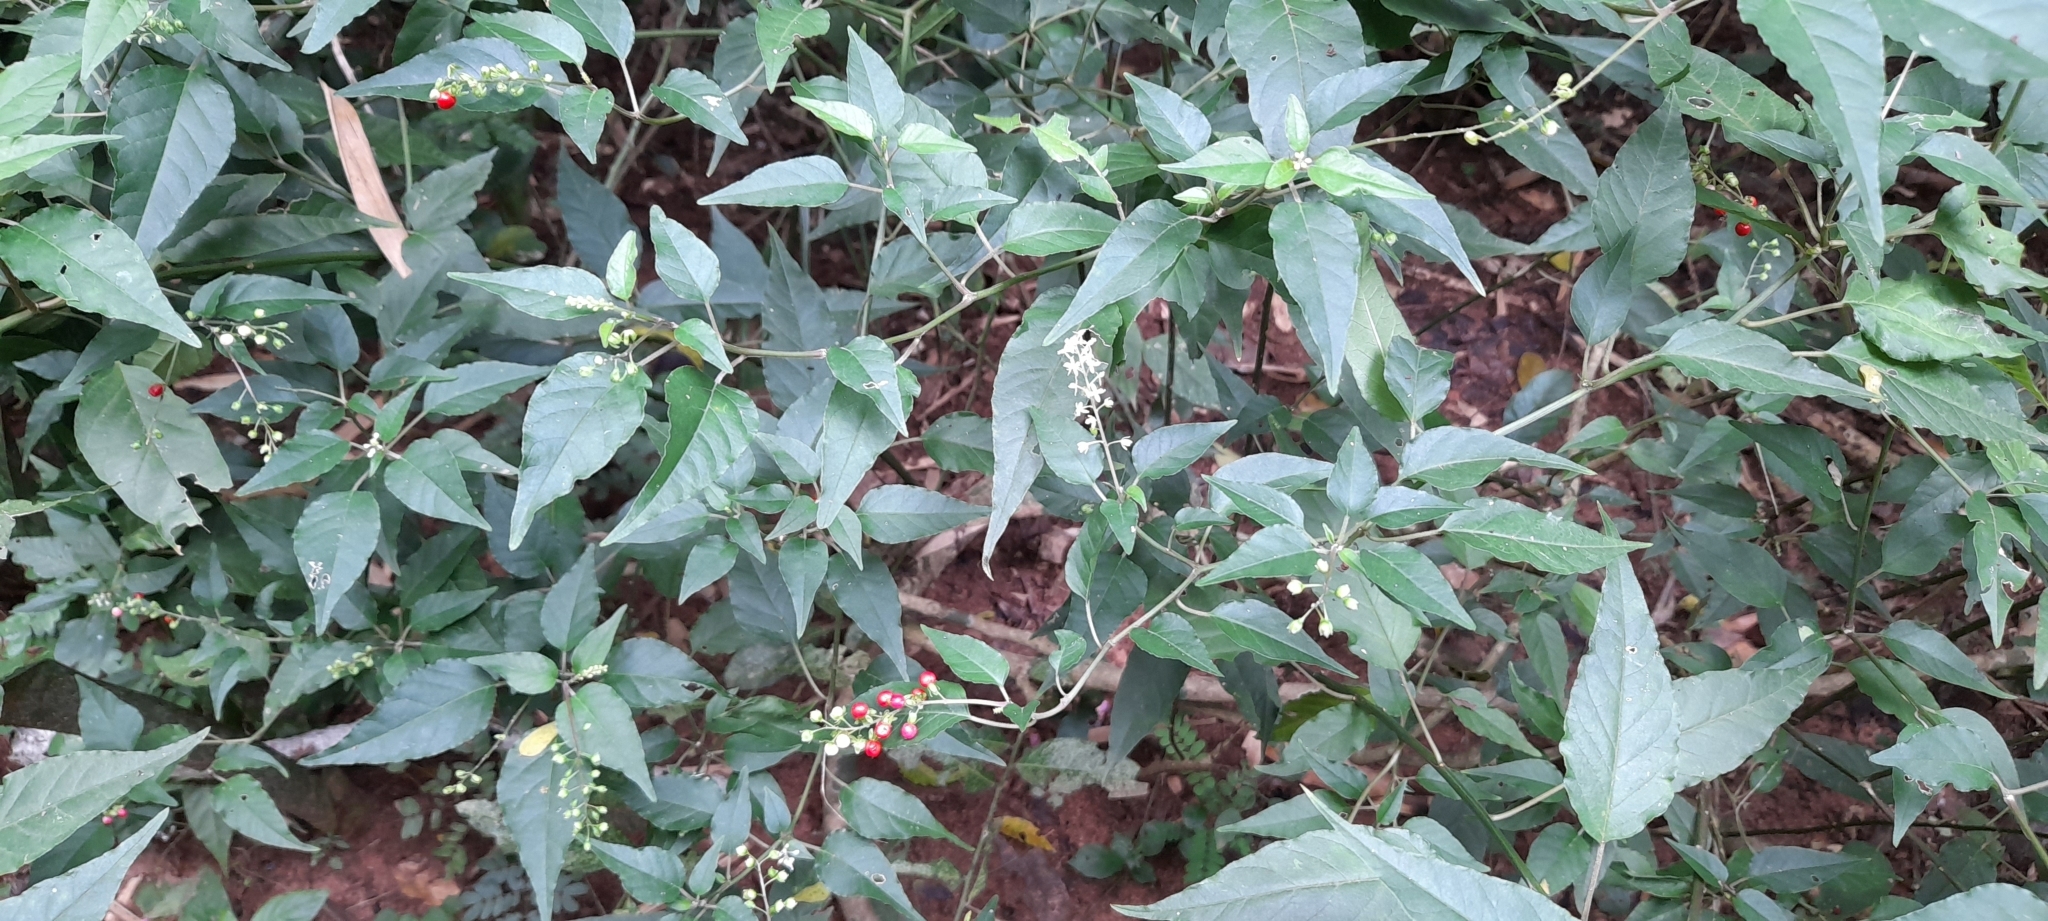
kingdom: Plantae
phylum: Tracheophyta
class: Magnoliopsida
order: Caryophyllales
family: Phytolaccaceae
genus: Rivina
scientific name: Rivina humilis
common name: Rougeplant
